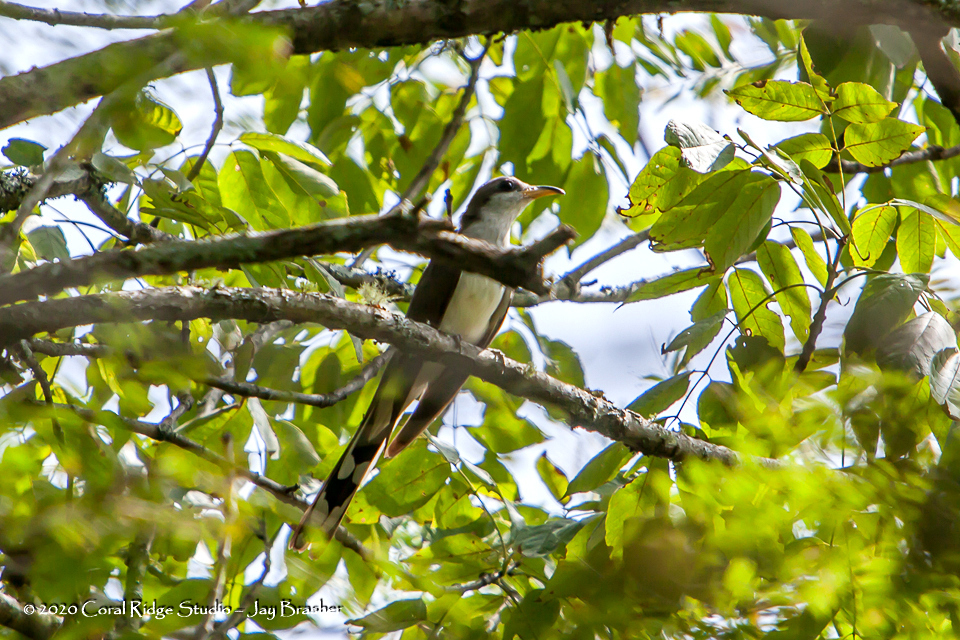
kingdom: Animalia
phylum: Chordata
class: Aves
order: Cuculiformes
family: Cuculidae
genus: Coccyzus
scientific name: Coccyzus americanus
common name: Yellow-billed cuckoo
